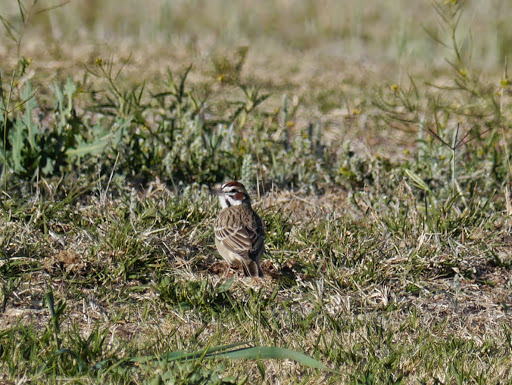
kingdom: Animalia
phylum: Chordata
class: Aves
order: Passeriformes
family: Passerellidae
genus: Chondestes
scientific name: Chondestes grammacus
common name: Lark sparrow
